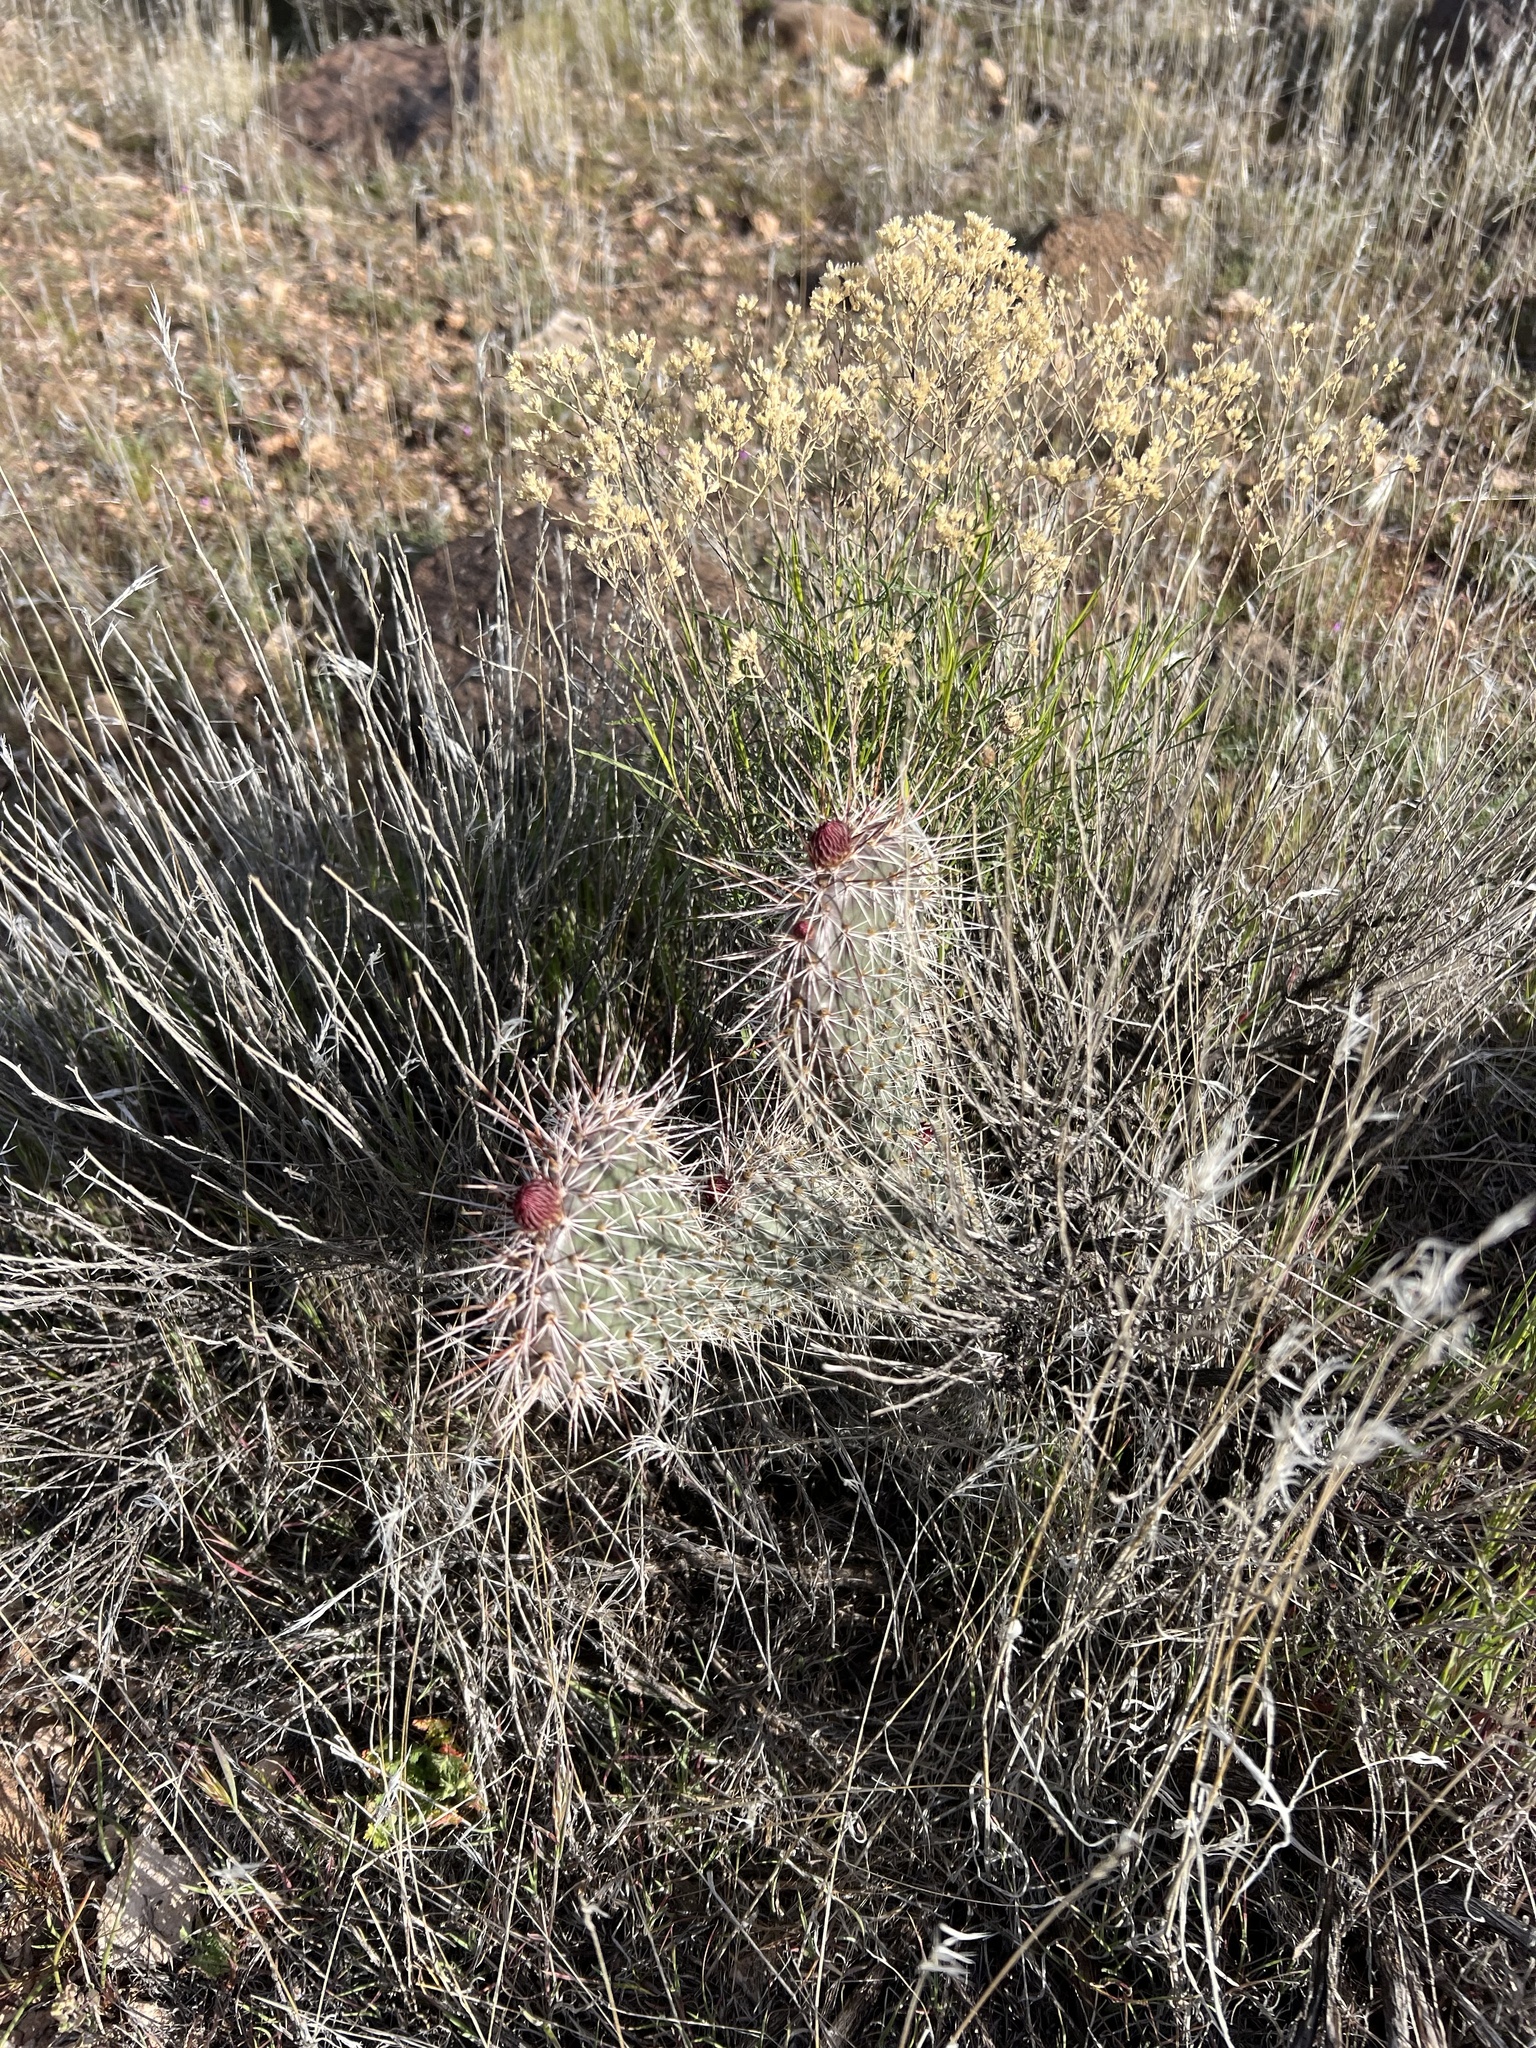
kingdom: Plantae
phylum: Tracheophyta
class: Magnoliopsida
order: Caryophyllales
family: Cactaceae
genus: Opuntia
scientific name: Opuntia polyacantha
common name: Plains prickly-pear
